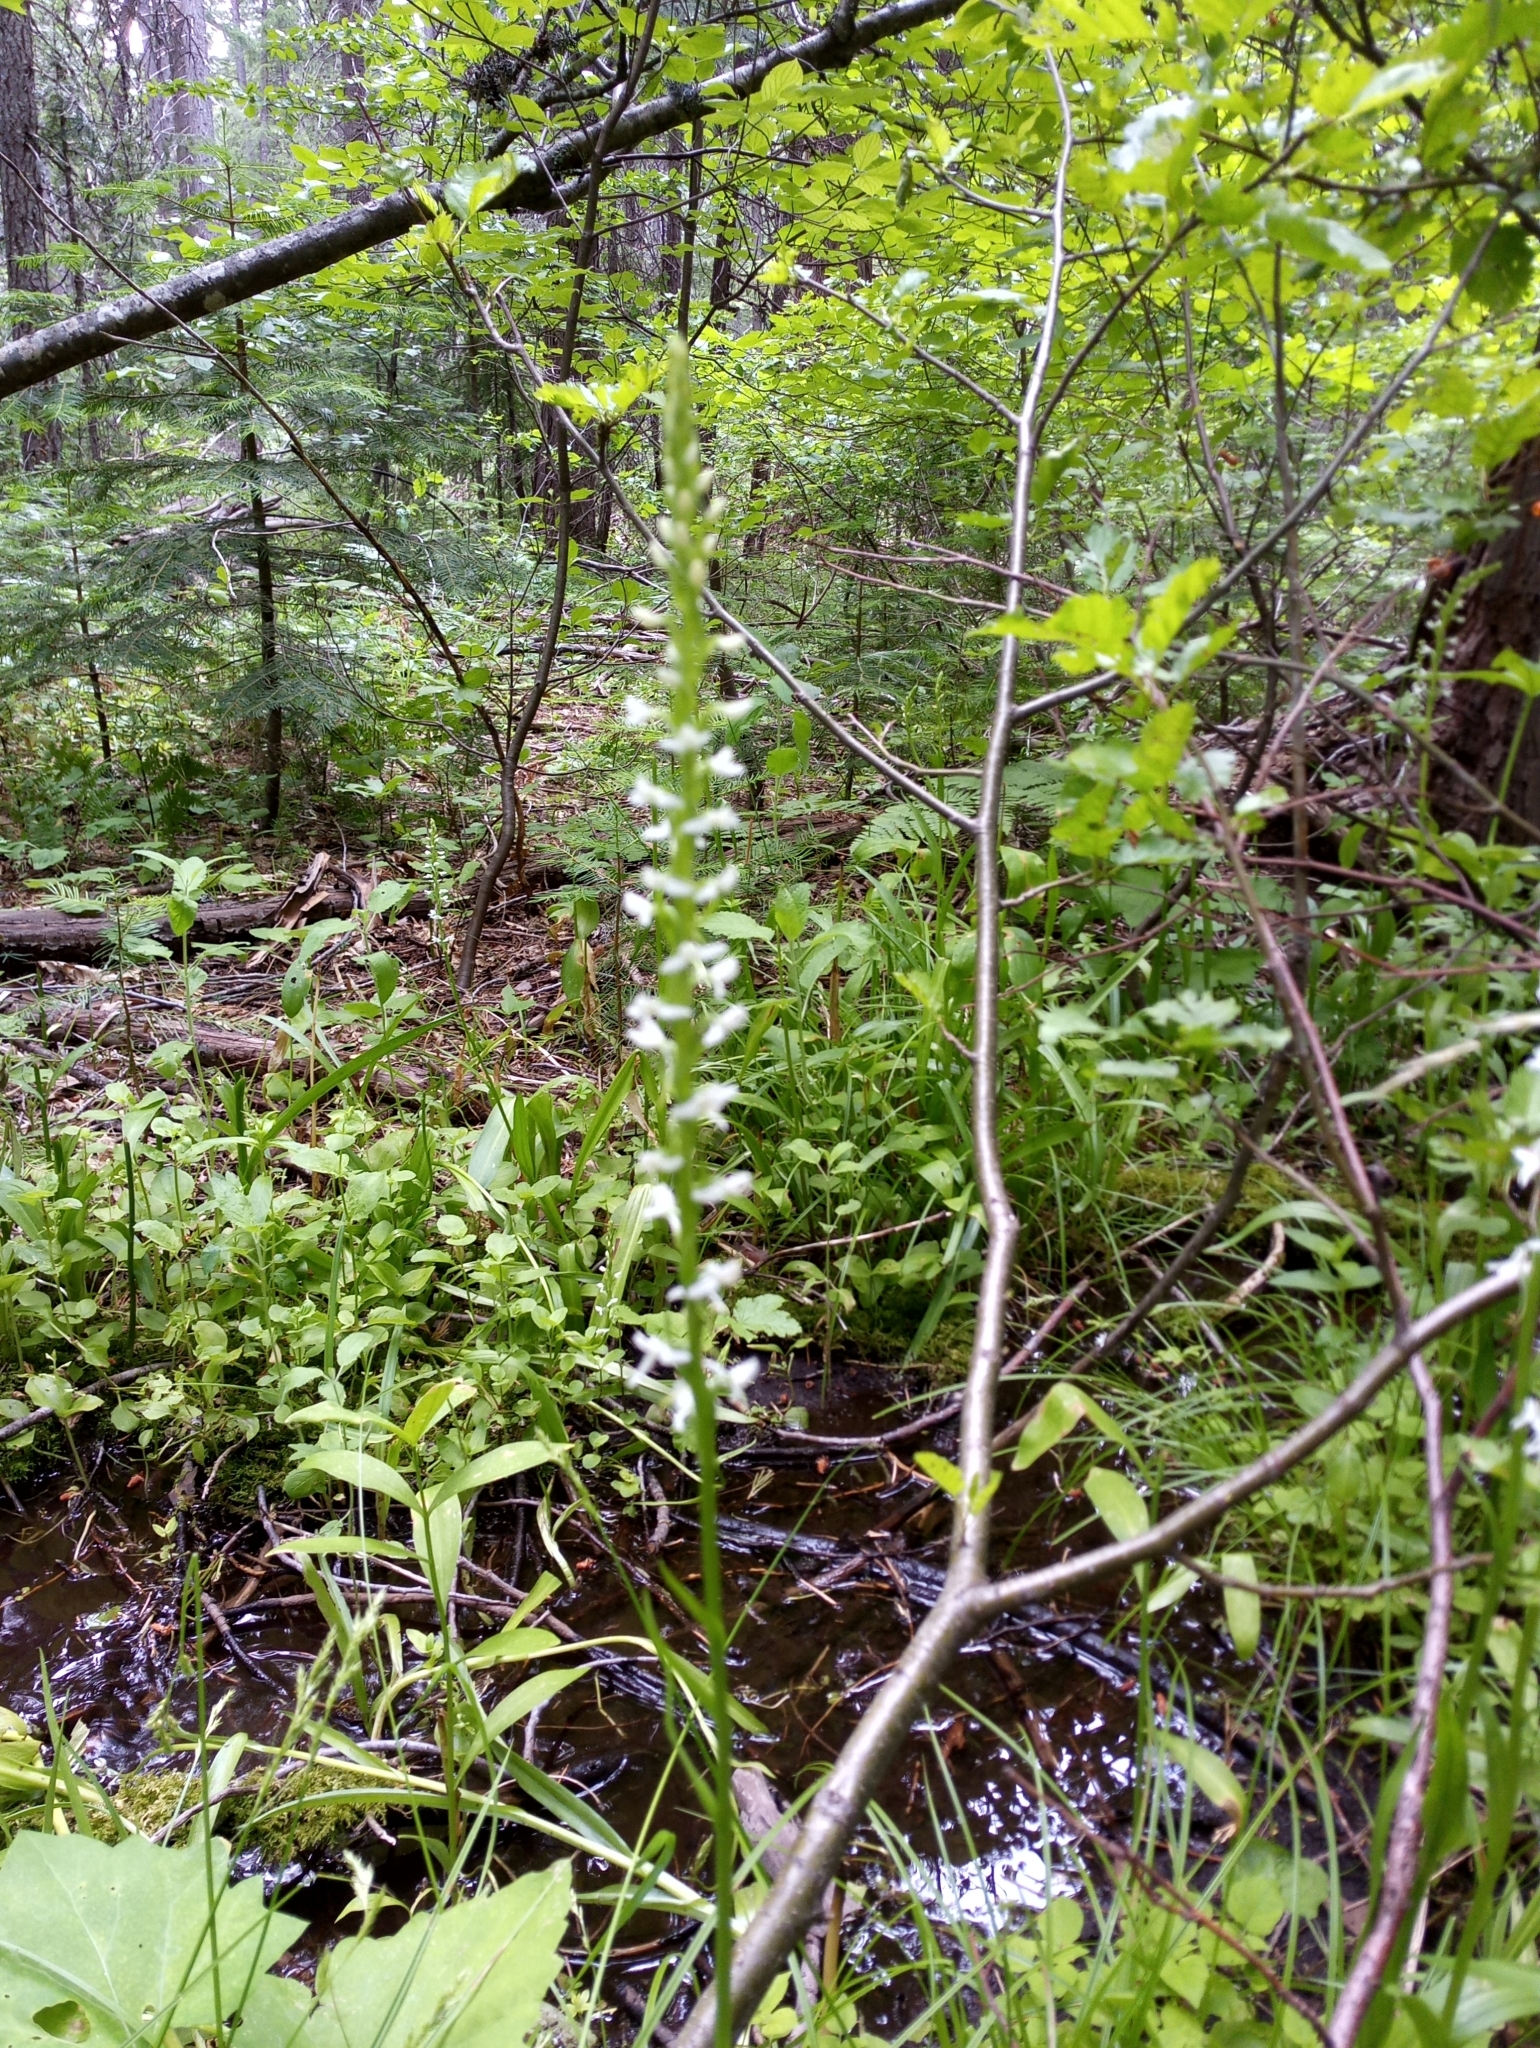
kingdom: Plantae
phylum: Tracheophyta
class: Liliopsida
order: Asparagales
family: Orchidaceae
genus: Platanthera
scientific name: Platanthera dilatata
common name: Bog candles
